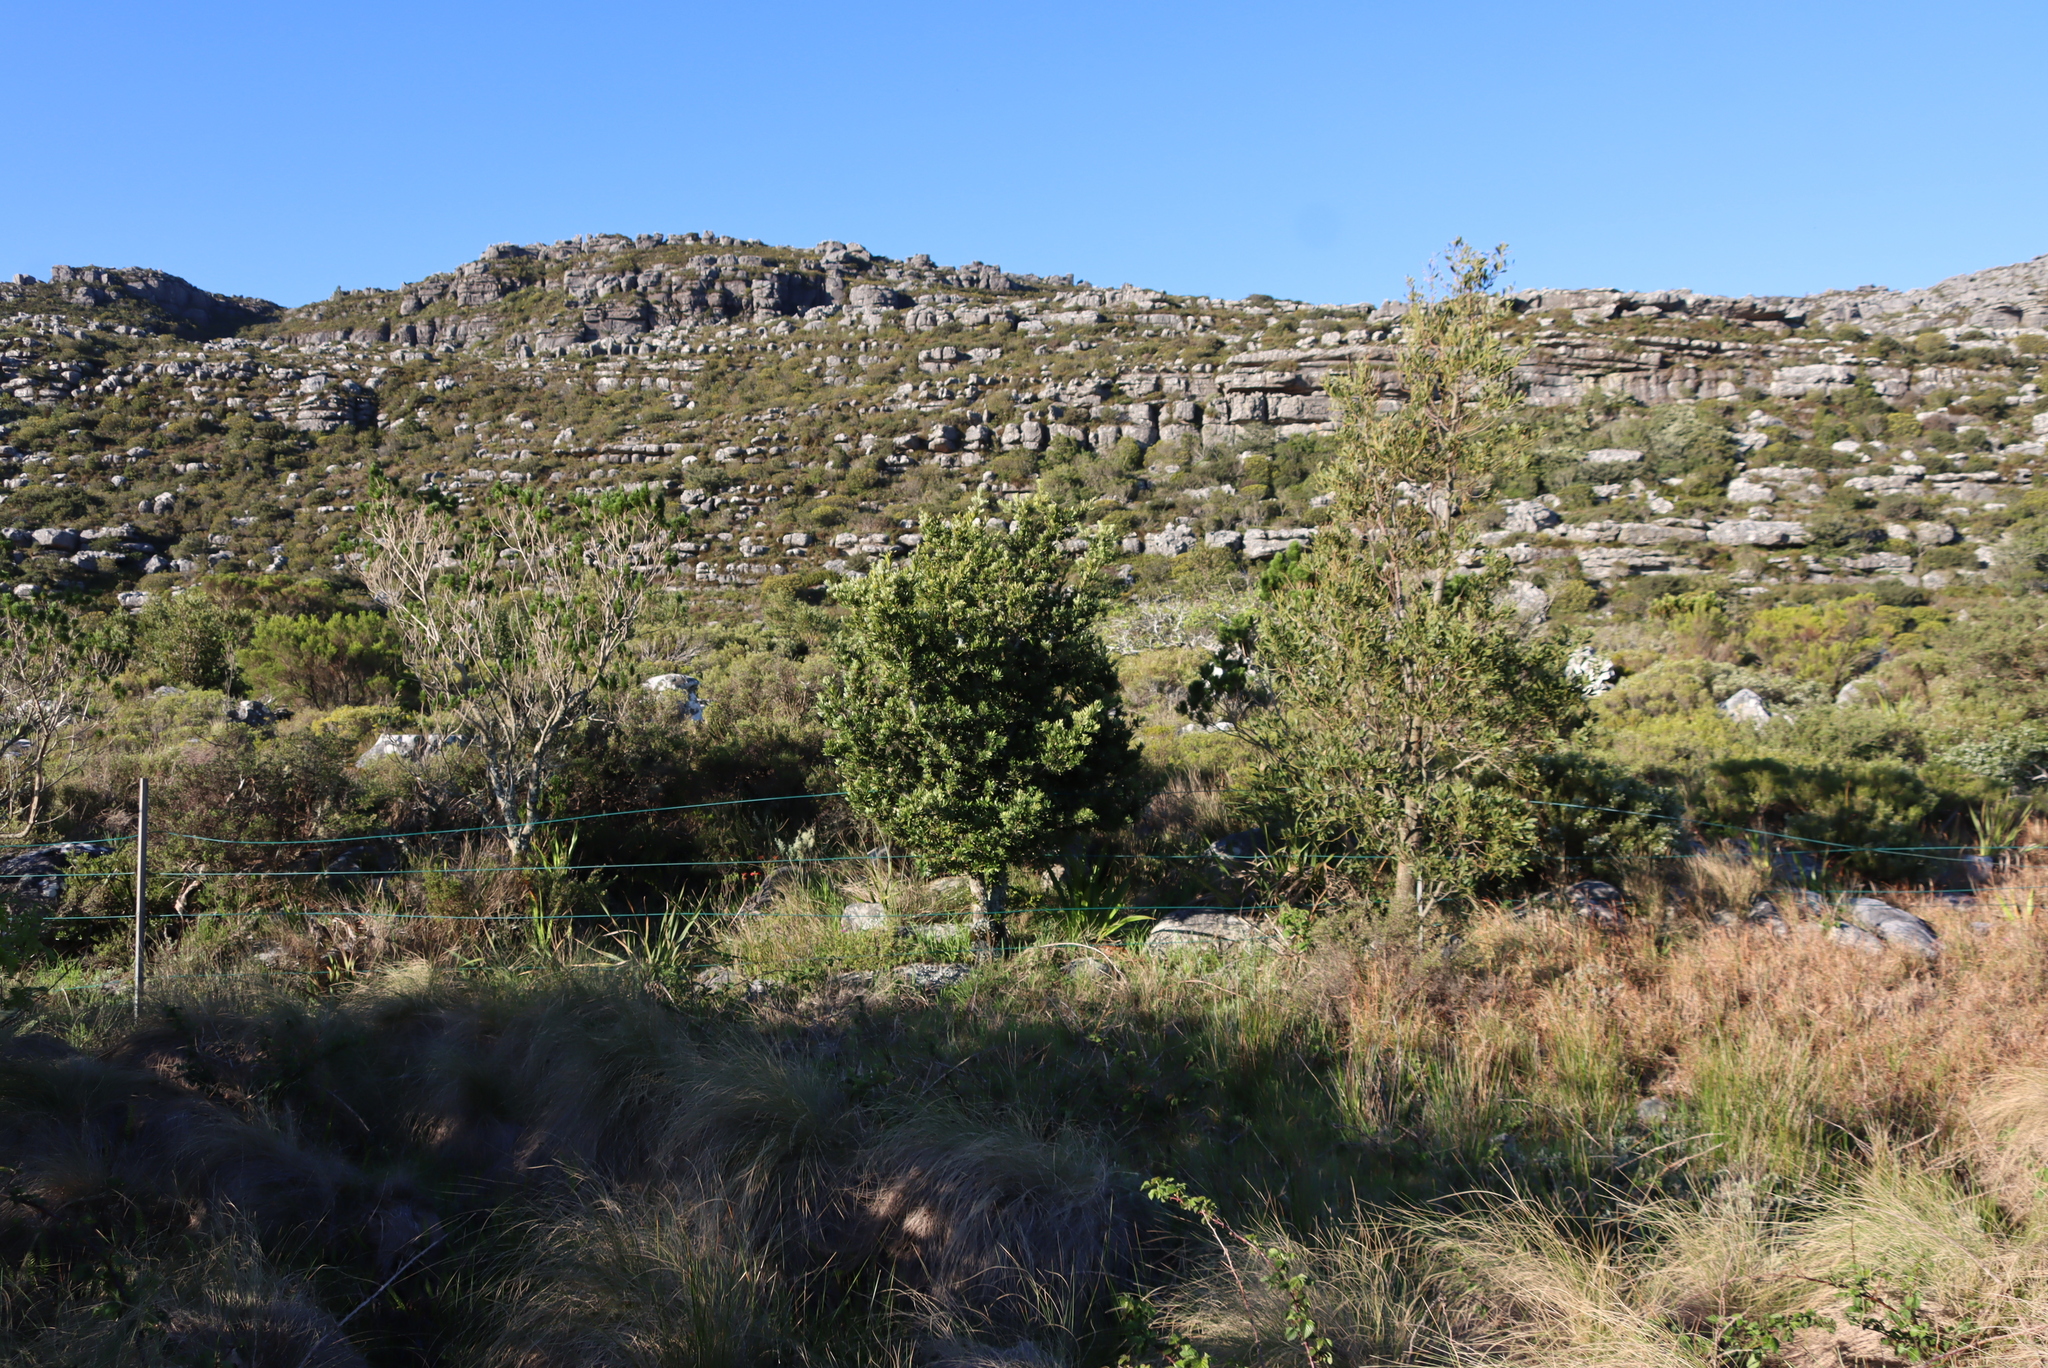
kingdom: Plantae
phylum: Tracheophyta
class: Pinopsida
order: Pinales
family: Podocarpaceae
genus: Afrocarpus
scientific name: Afrocarpus falcatus
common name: Bastard yellowwood
